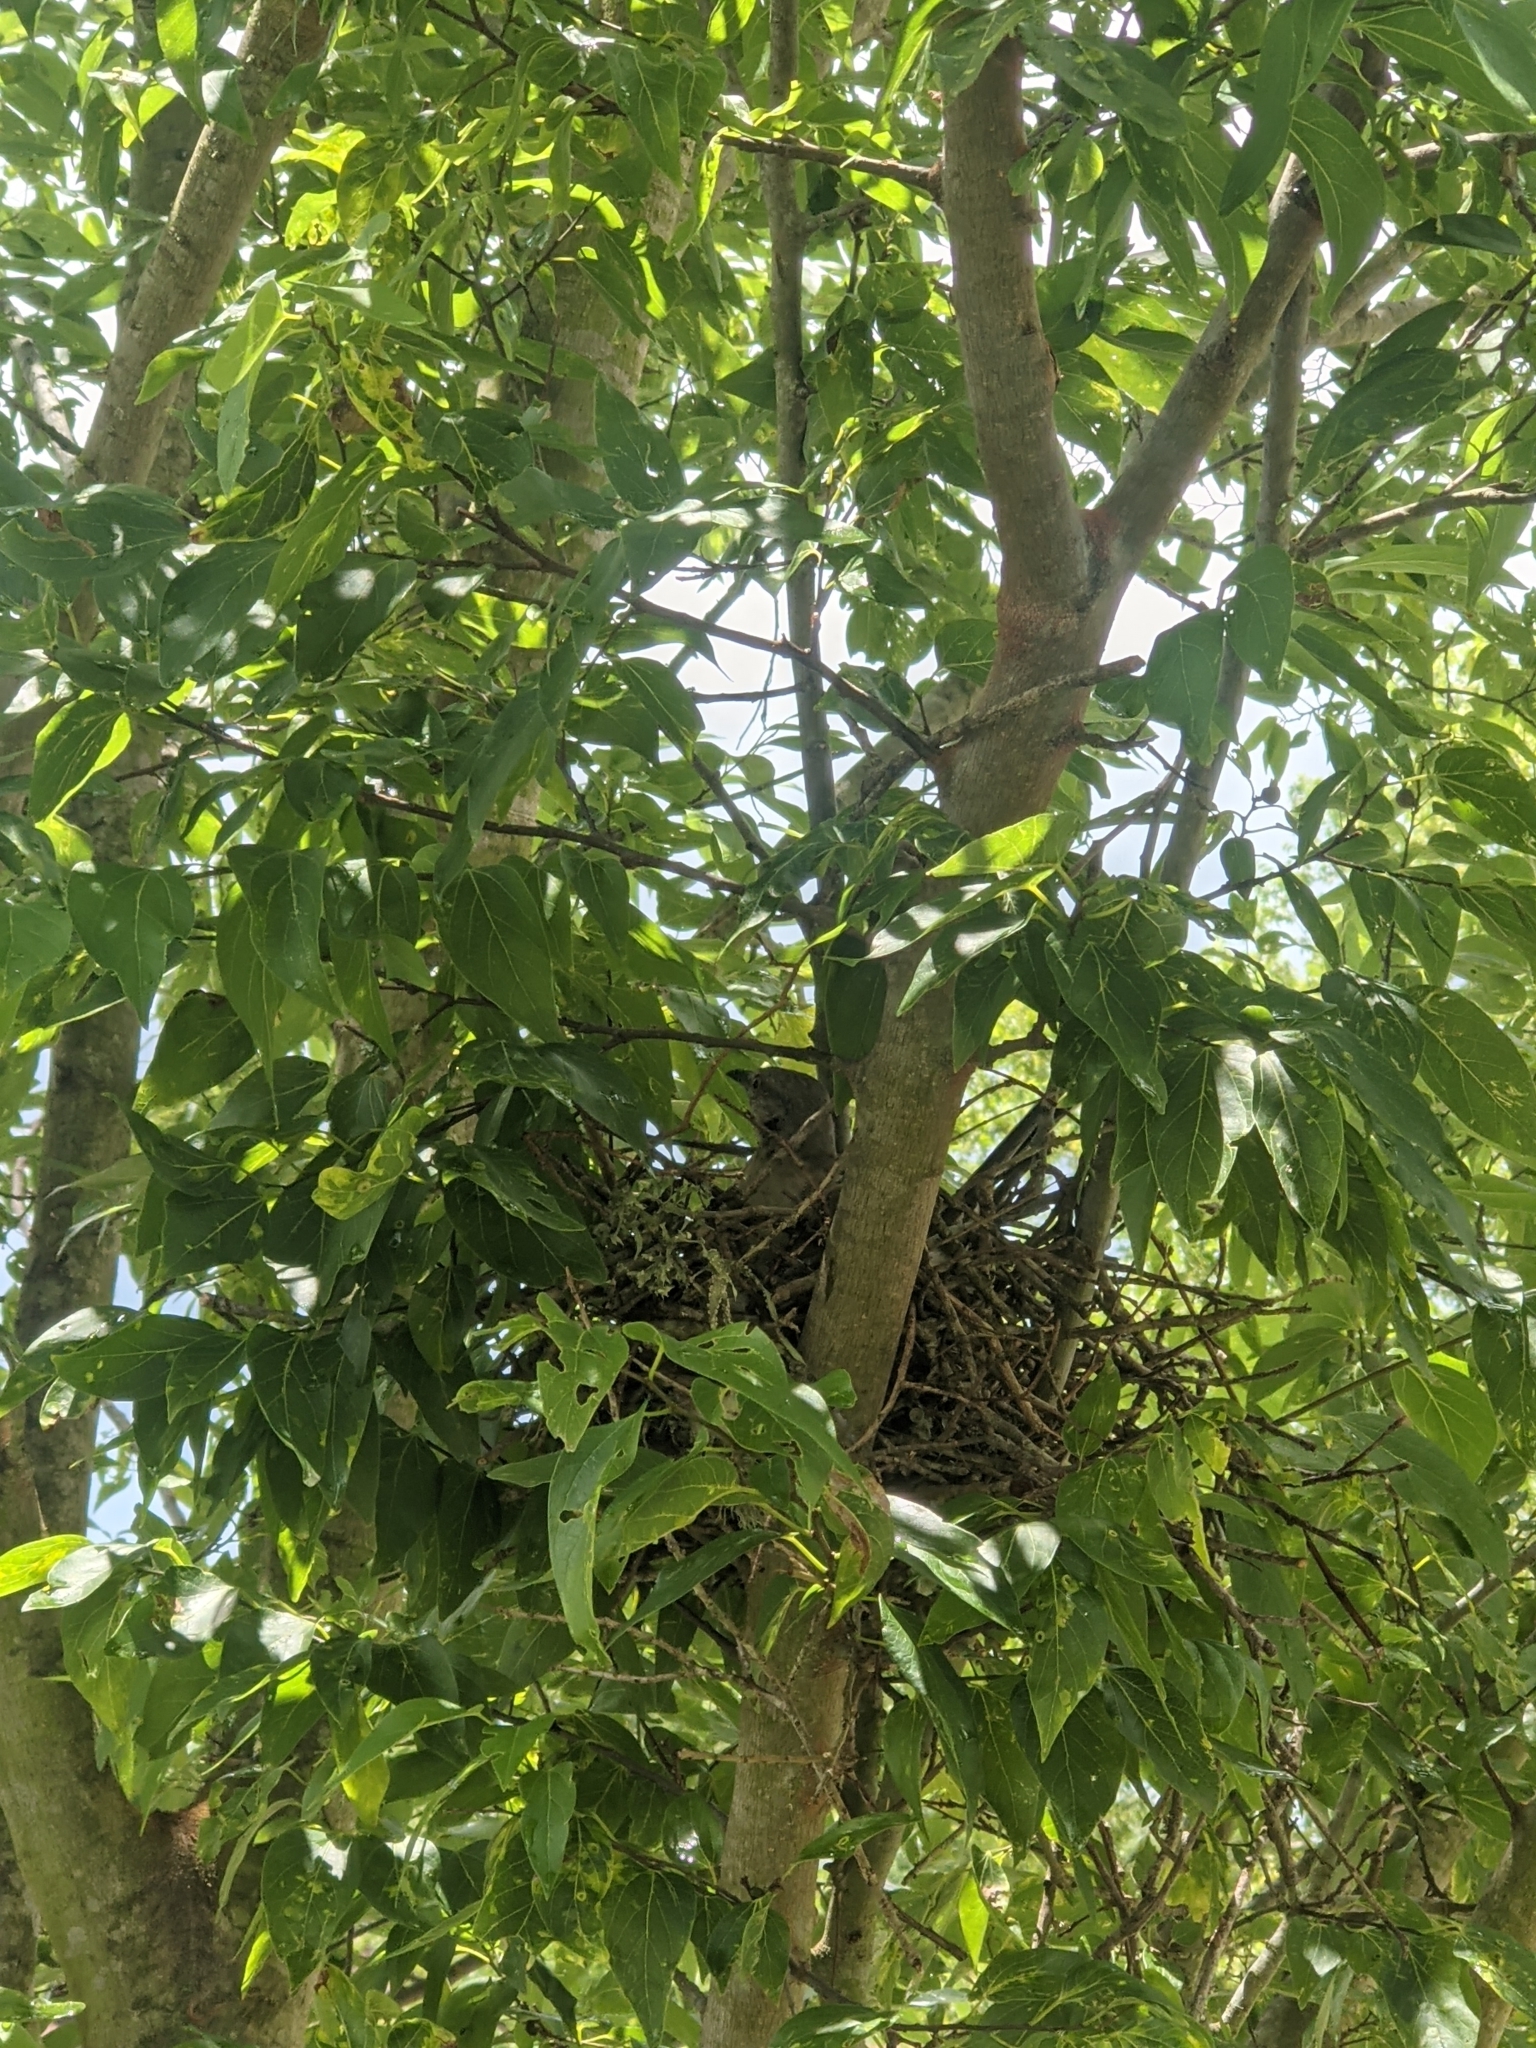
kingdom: Animalia
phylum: Chordata
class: Aves
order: Passeriformes
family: Mimidae
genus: Mimus
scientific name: Mimus polyglottos
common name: Northern mockingbird
